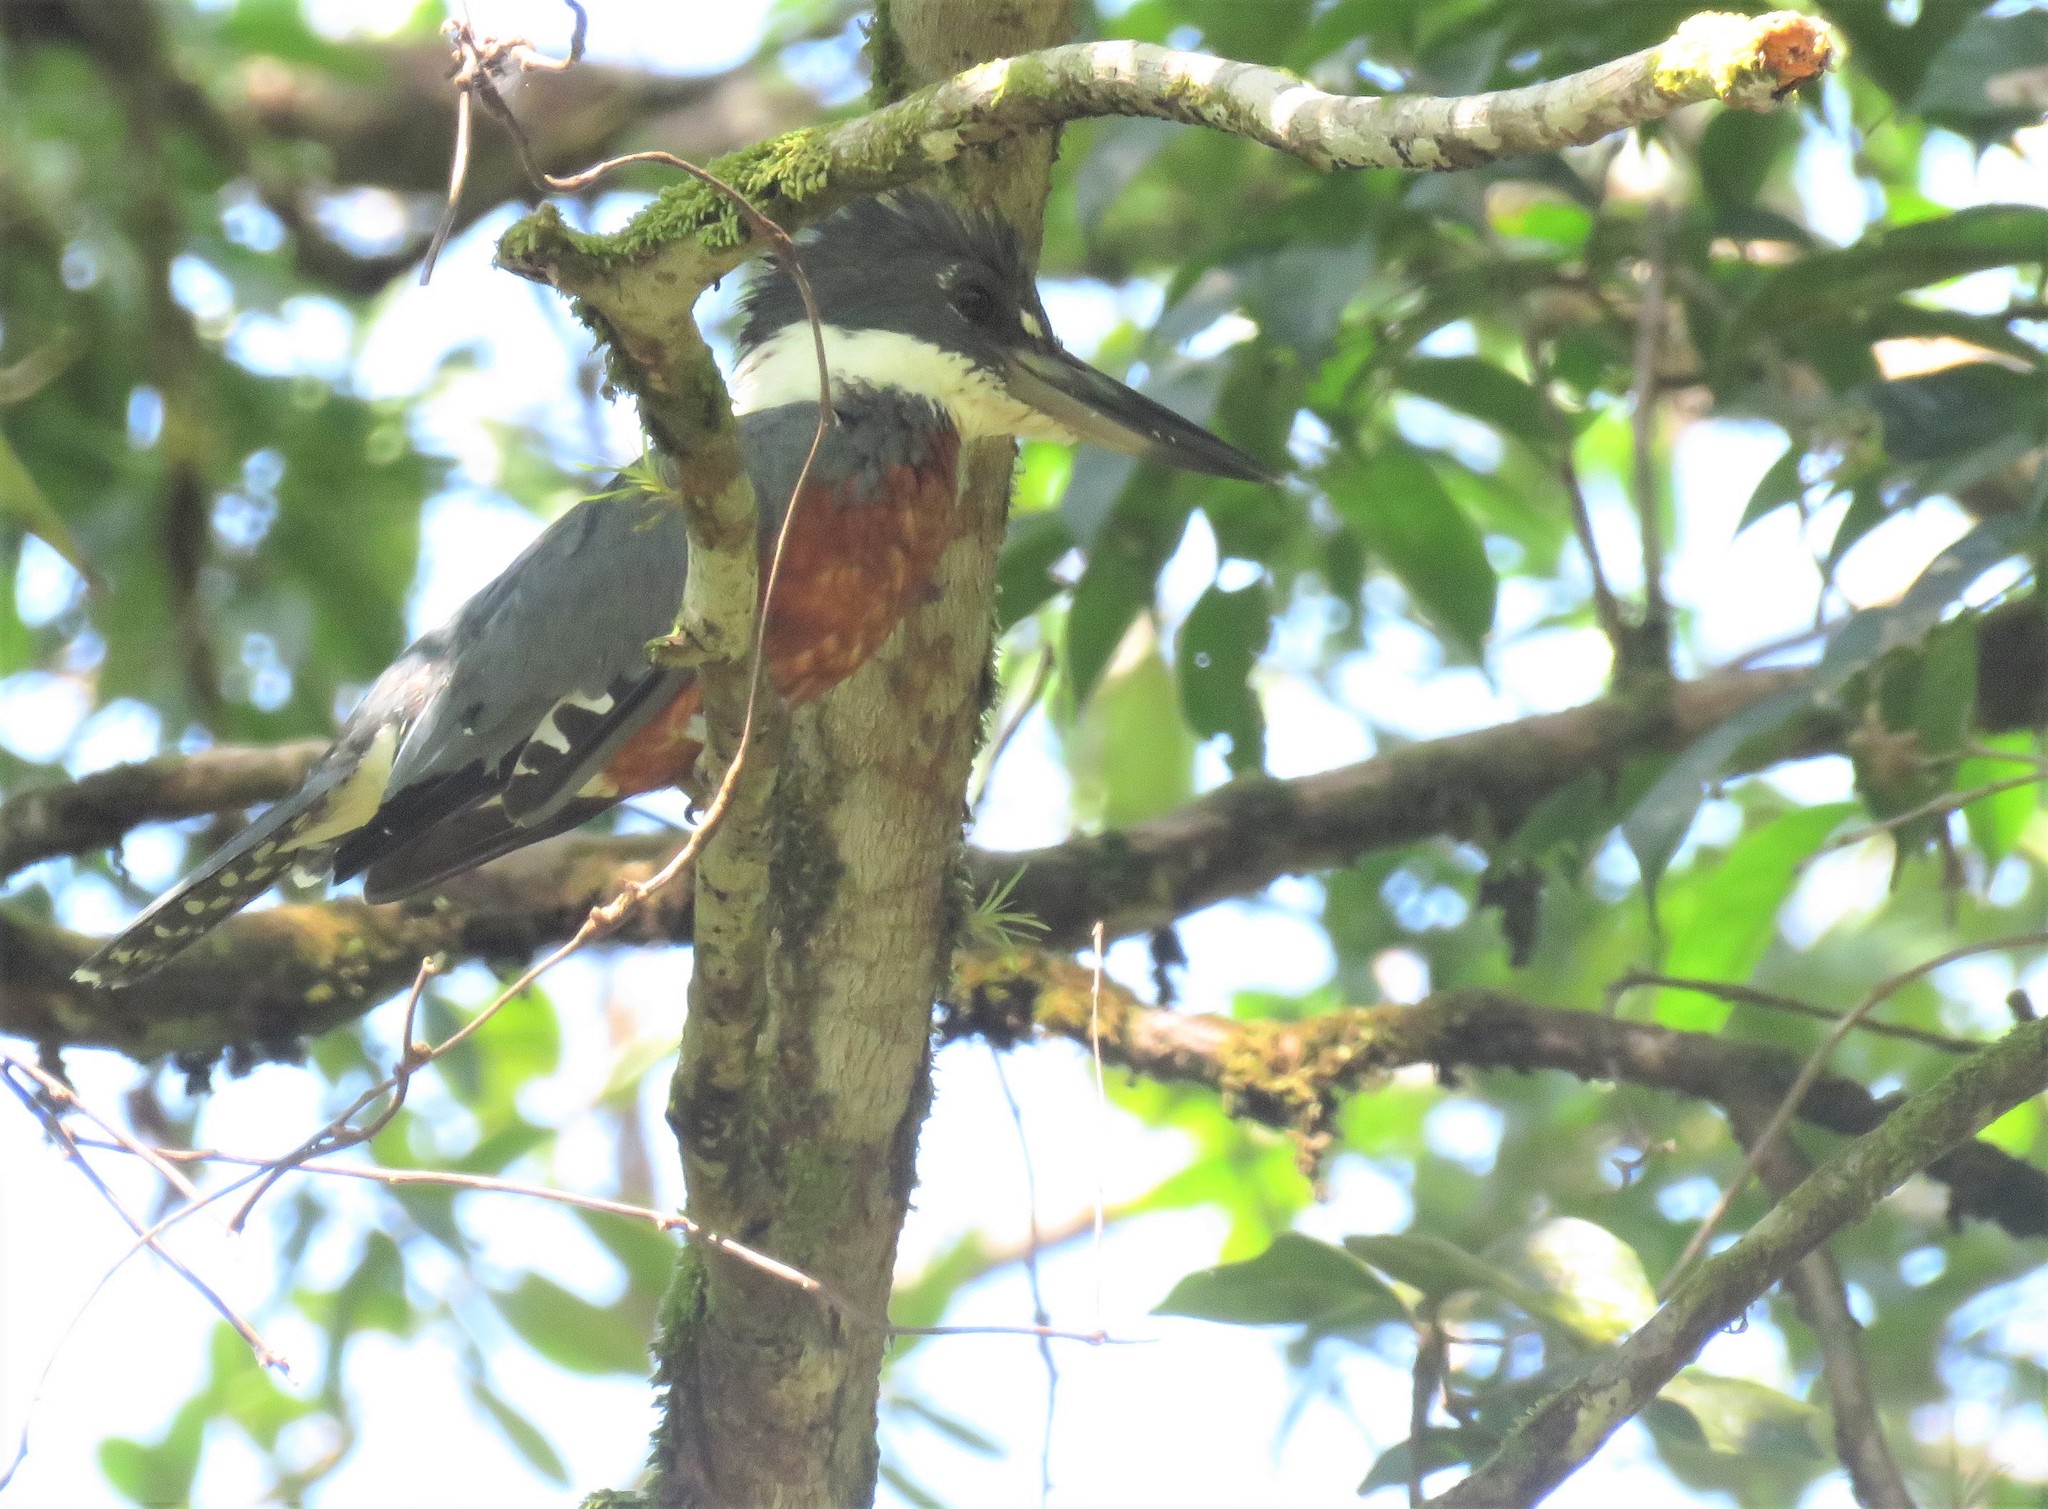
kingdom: Animalia
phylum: Chordata
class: Aves
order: Coraciiformes
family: Alcedinidae
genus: Megaceryle
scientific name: Megaceryle torquata
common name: Ringed kingfisher
